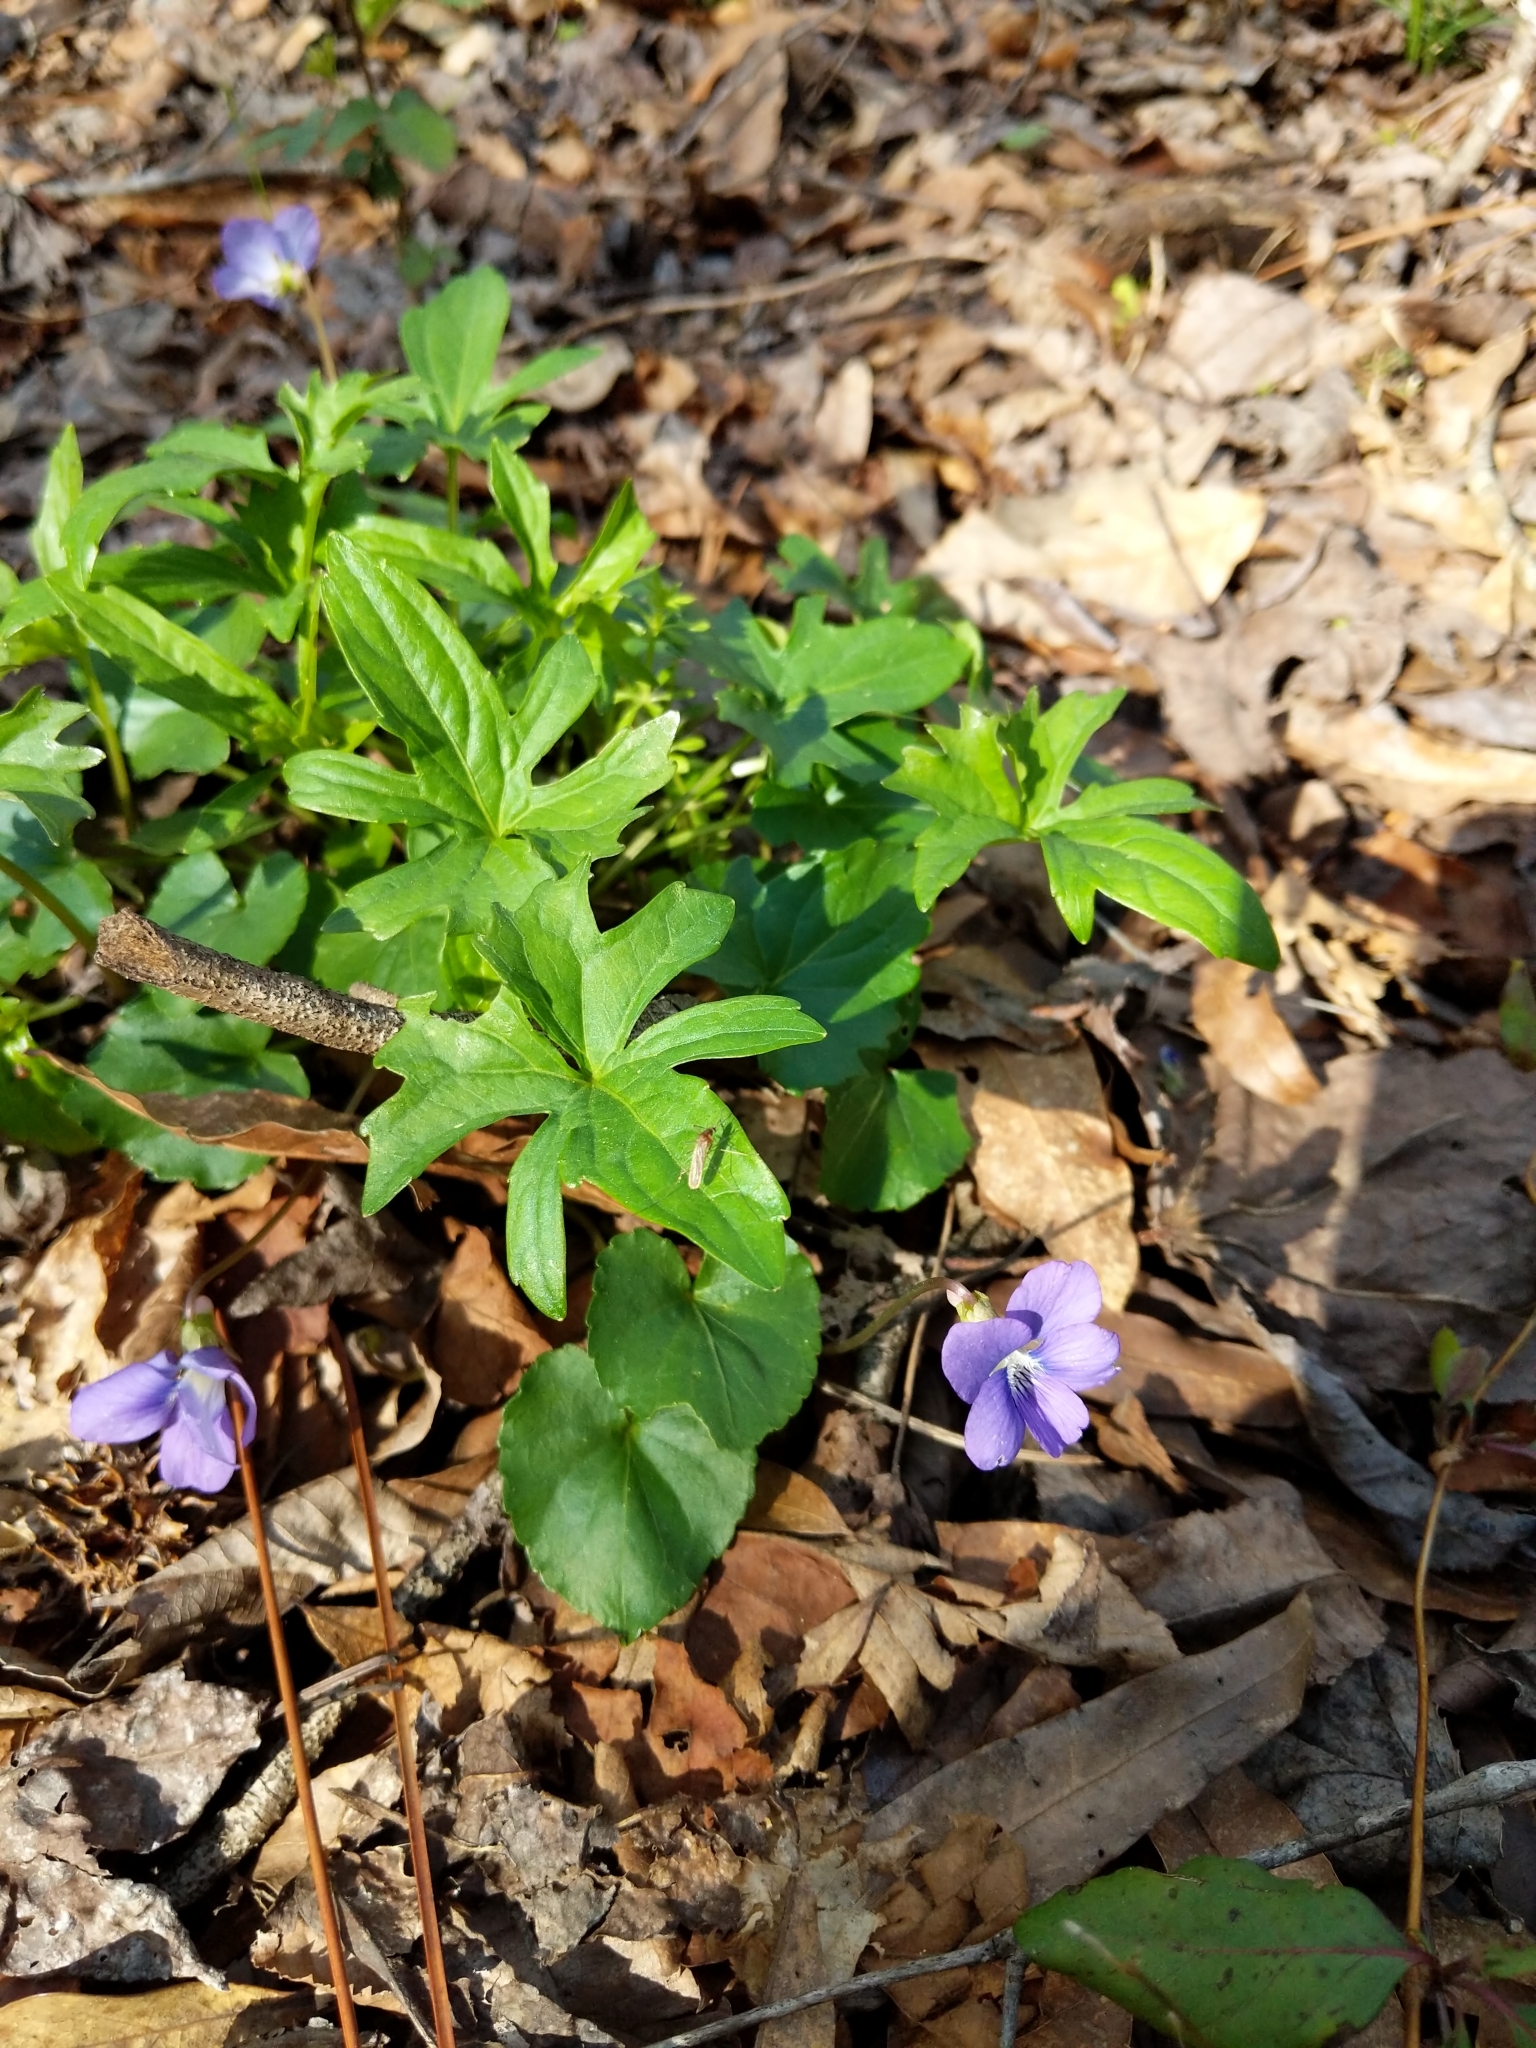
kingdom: Plantae
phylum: Tracheophyta
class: Magnoliopsida
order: Malpighiales
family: Violaceae
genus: Viola
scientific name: Viola palmata
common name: Early blue violet
